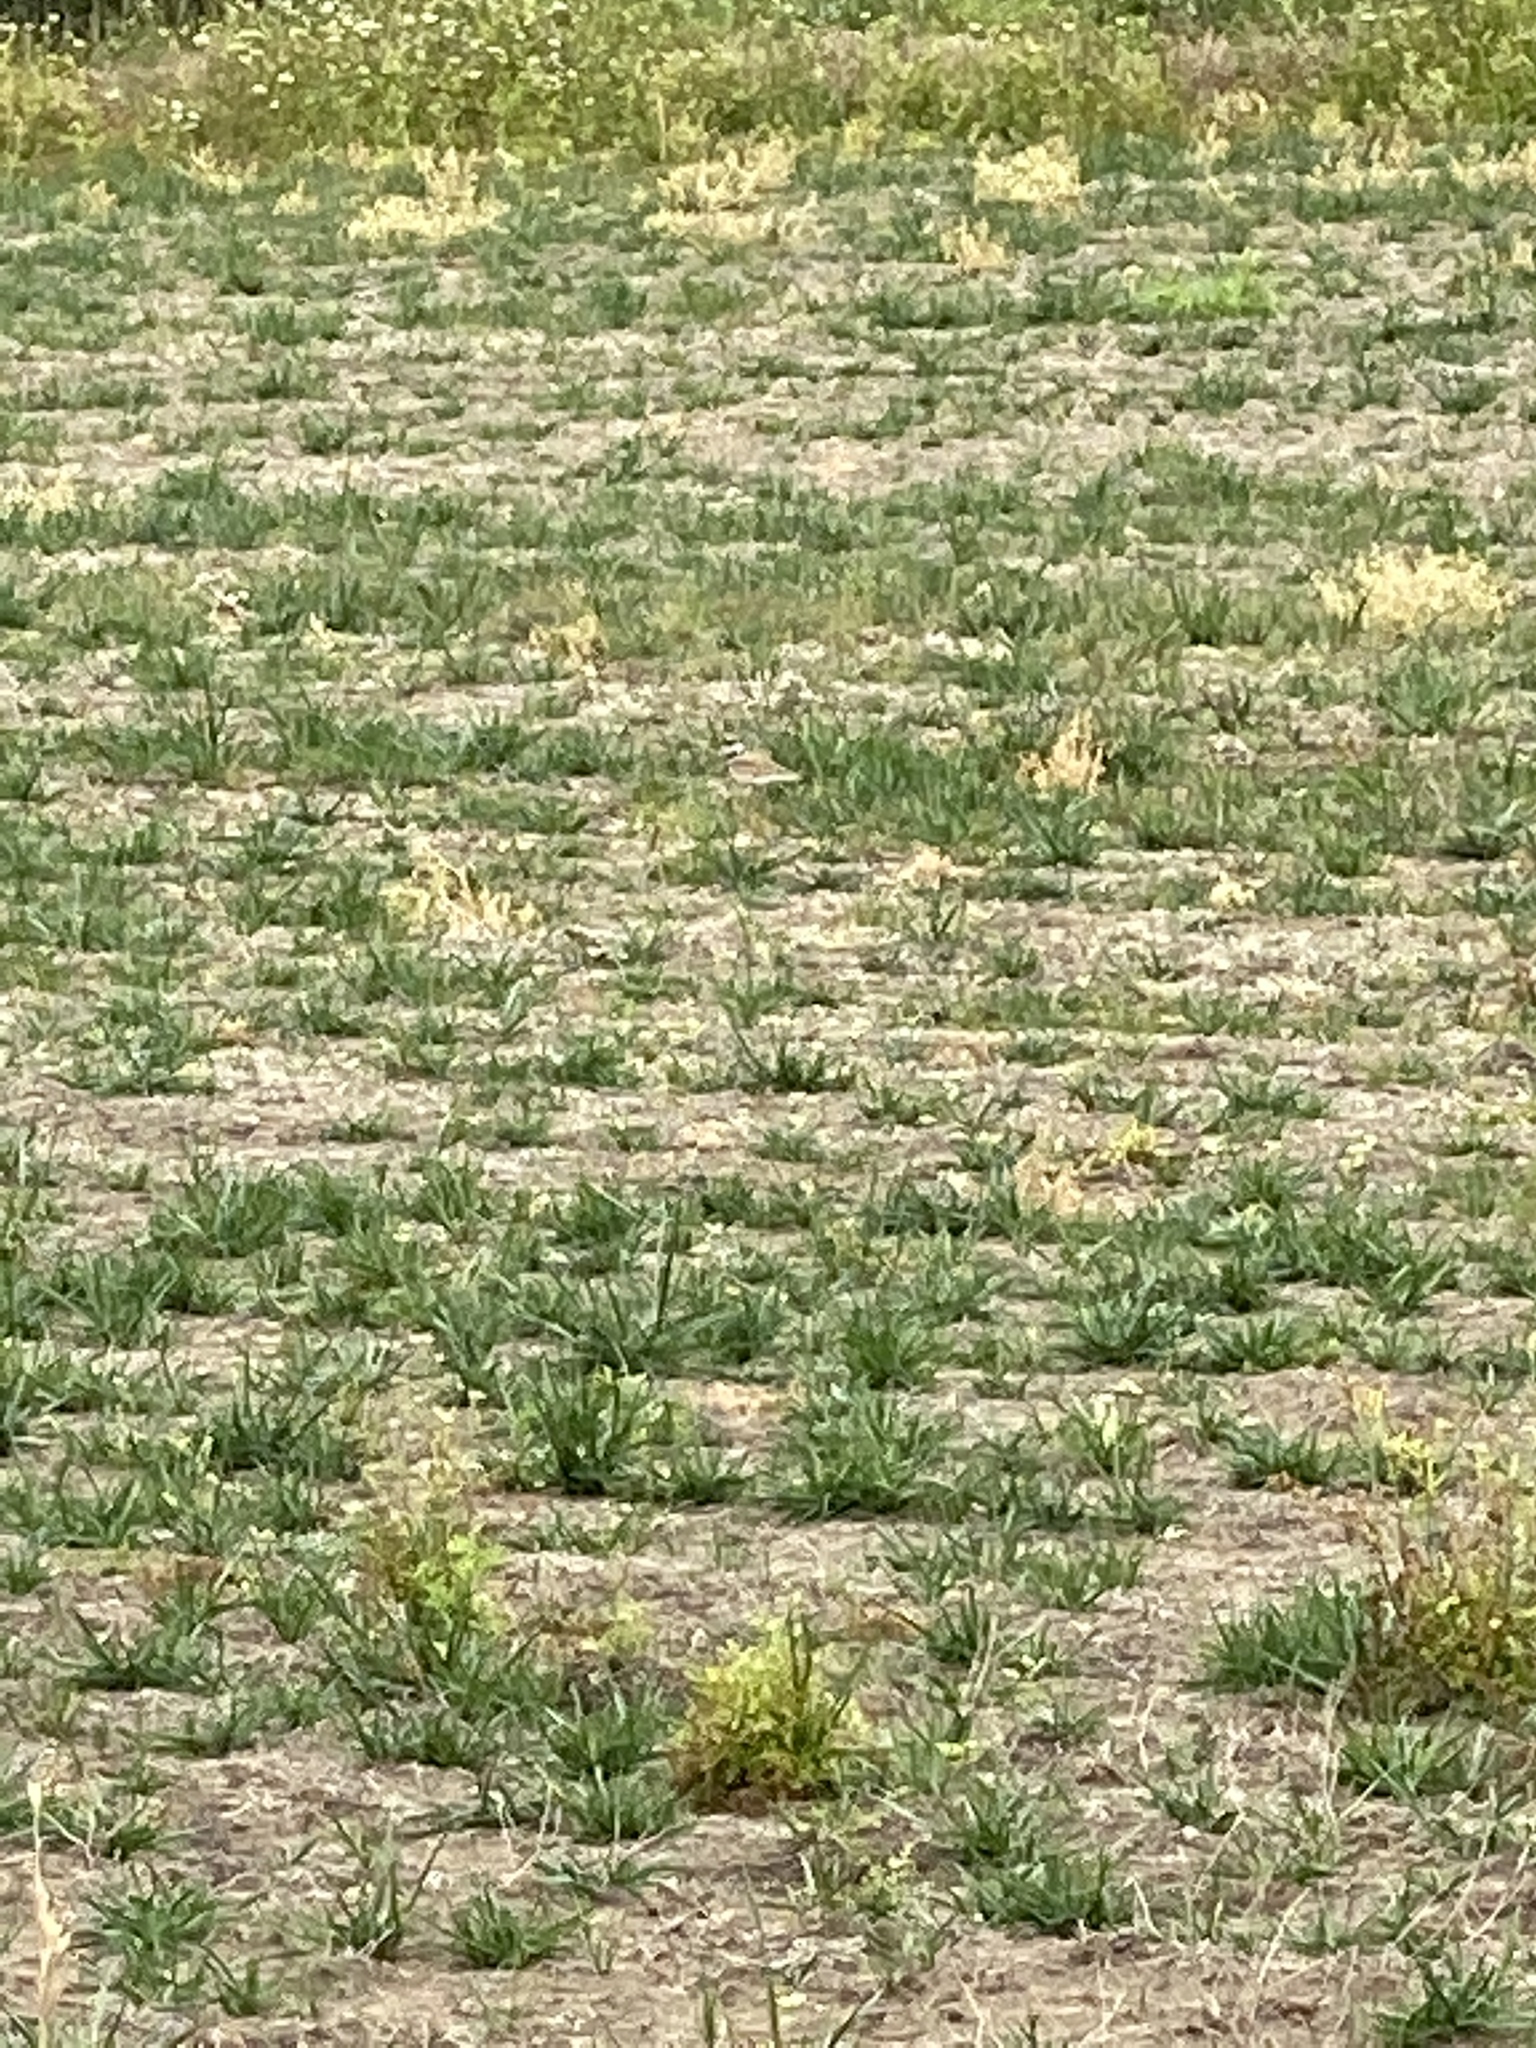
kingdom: Animalia
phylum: Chordata
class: Aves
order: Charadriiformes
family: Charadriidae
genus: Charadrius
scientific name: Charadrius vociferus
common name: Killdeer
